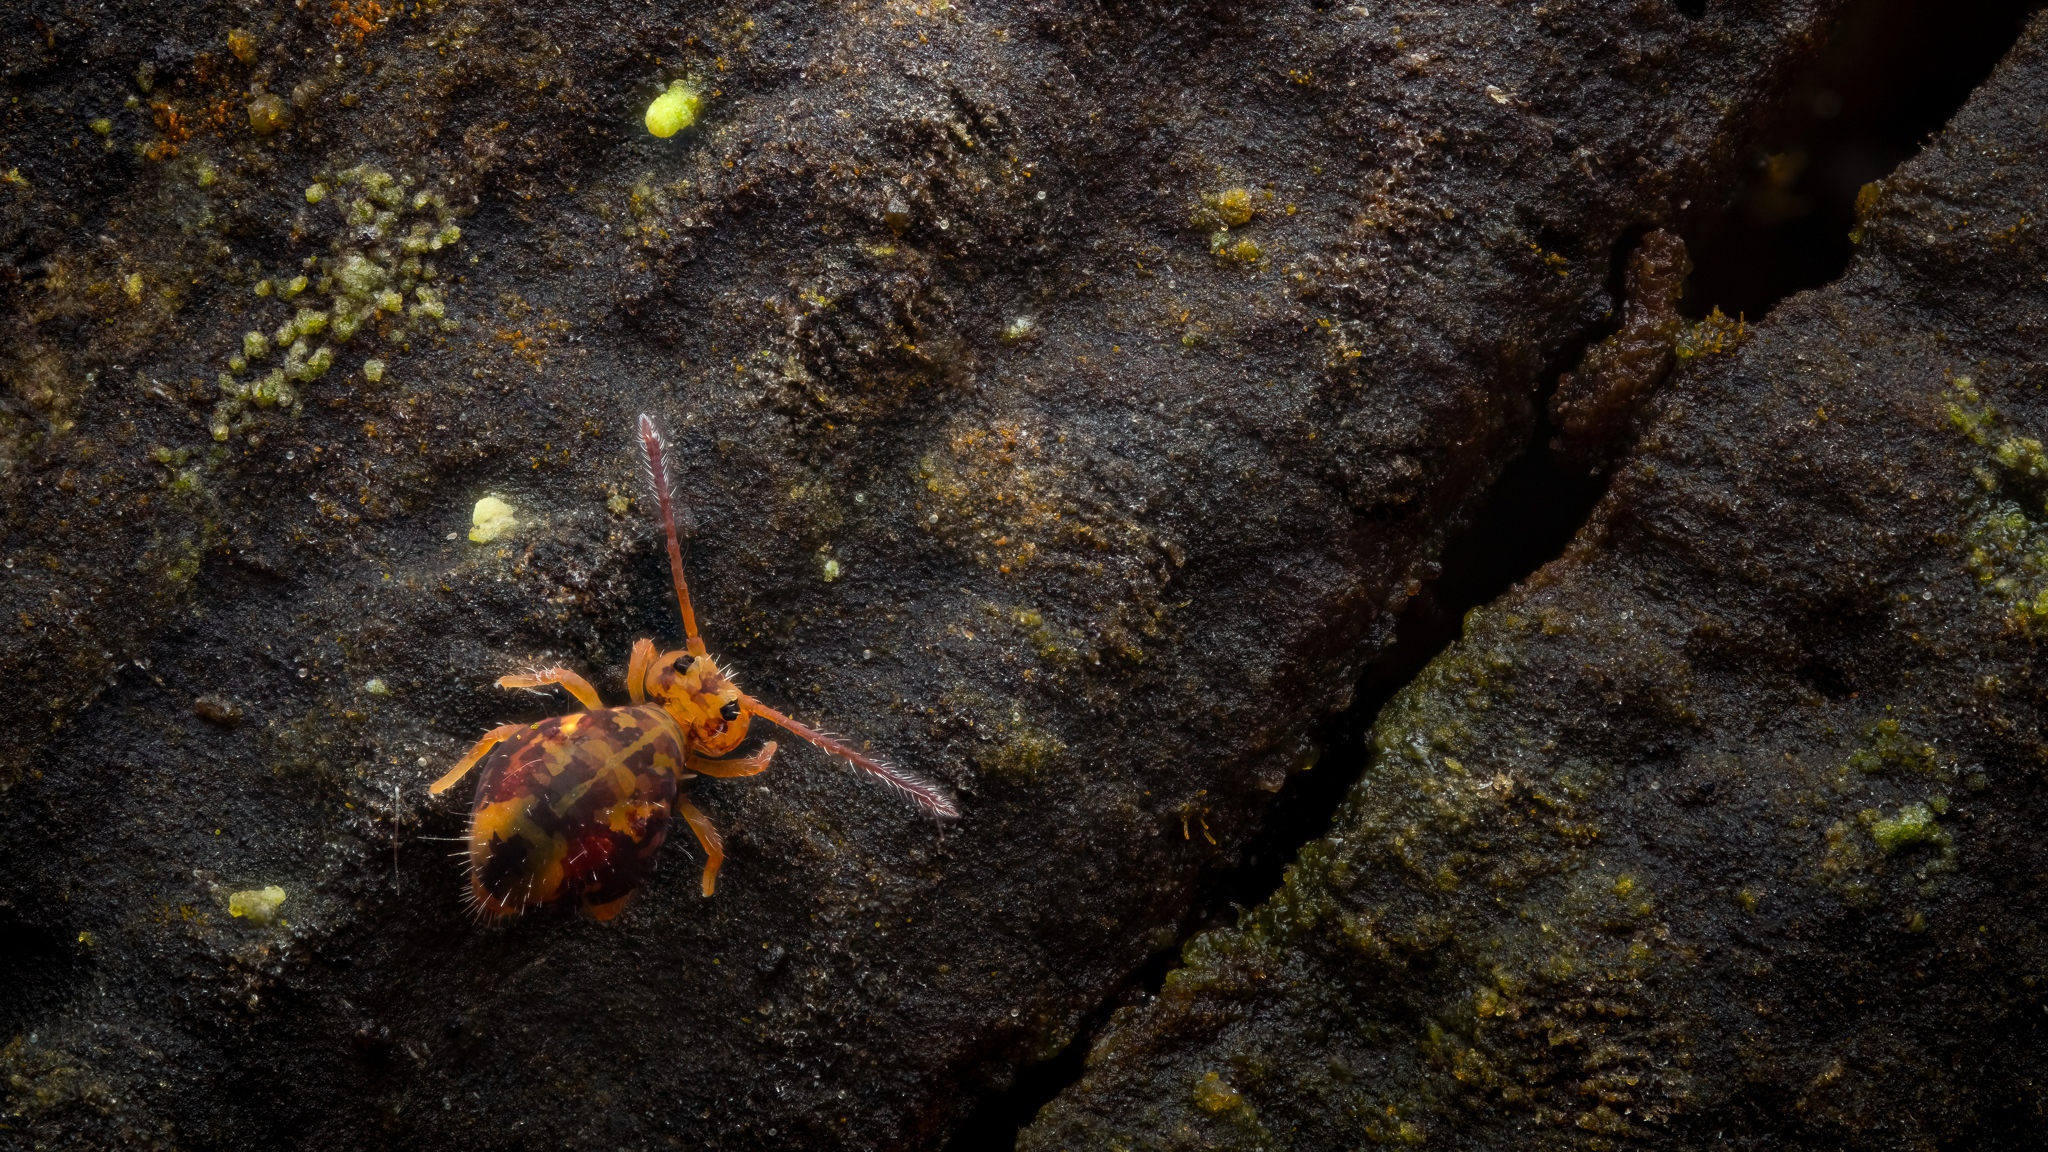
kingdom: Animalia
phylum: Arthropoda
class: Collembola
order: Symphypleona
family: Dicyrtomidae
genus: Dicyrtomina
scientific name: Dicyrtomina ornata
